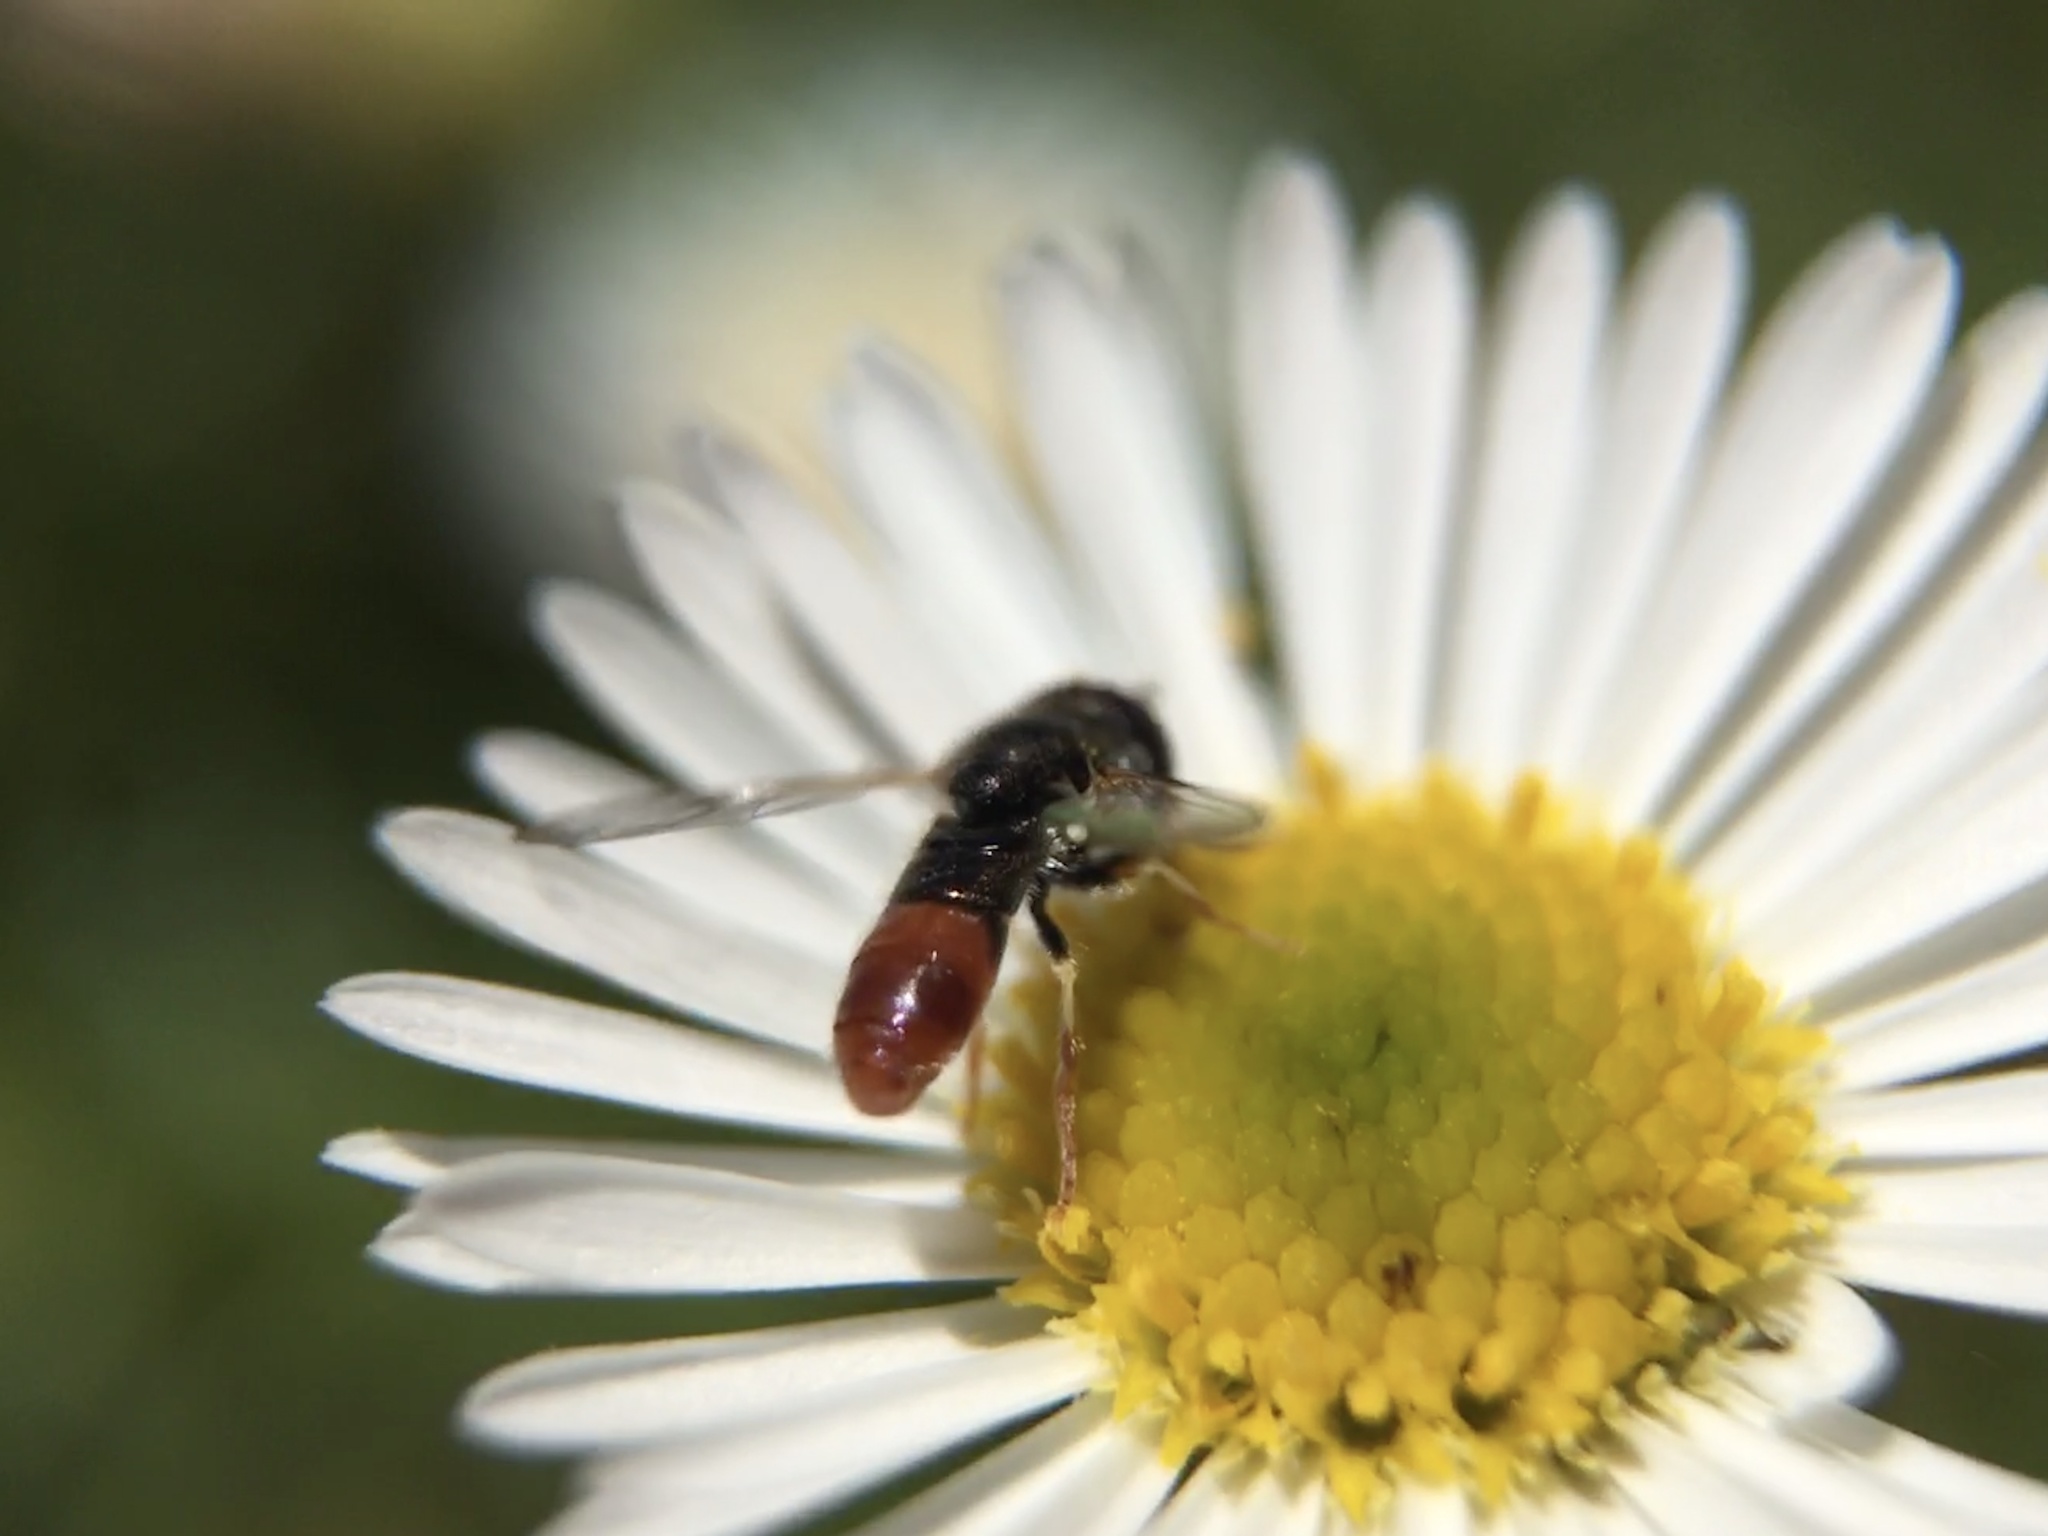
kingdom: Animalia
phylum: Arthropoda
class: Insecta
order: Diptera
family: Syrphidae
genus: Paragus
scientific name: Paragus haemorrhous
